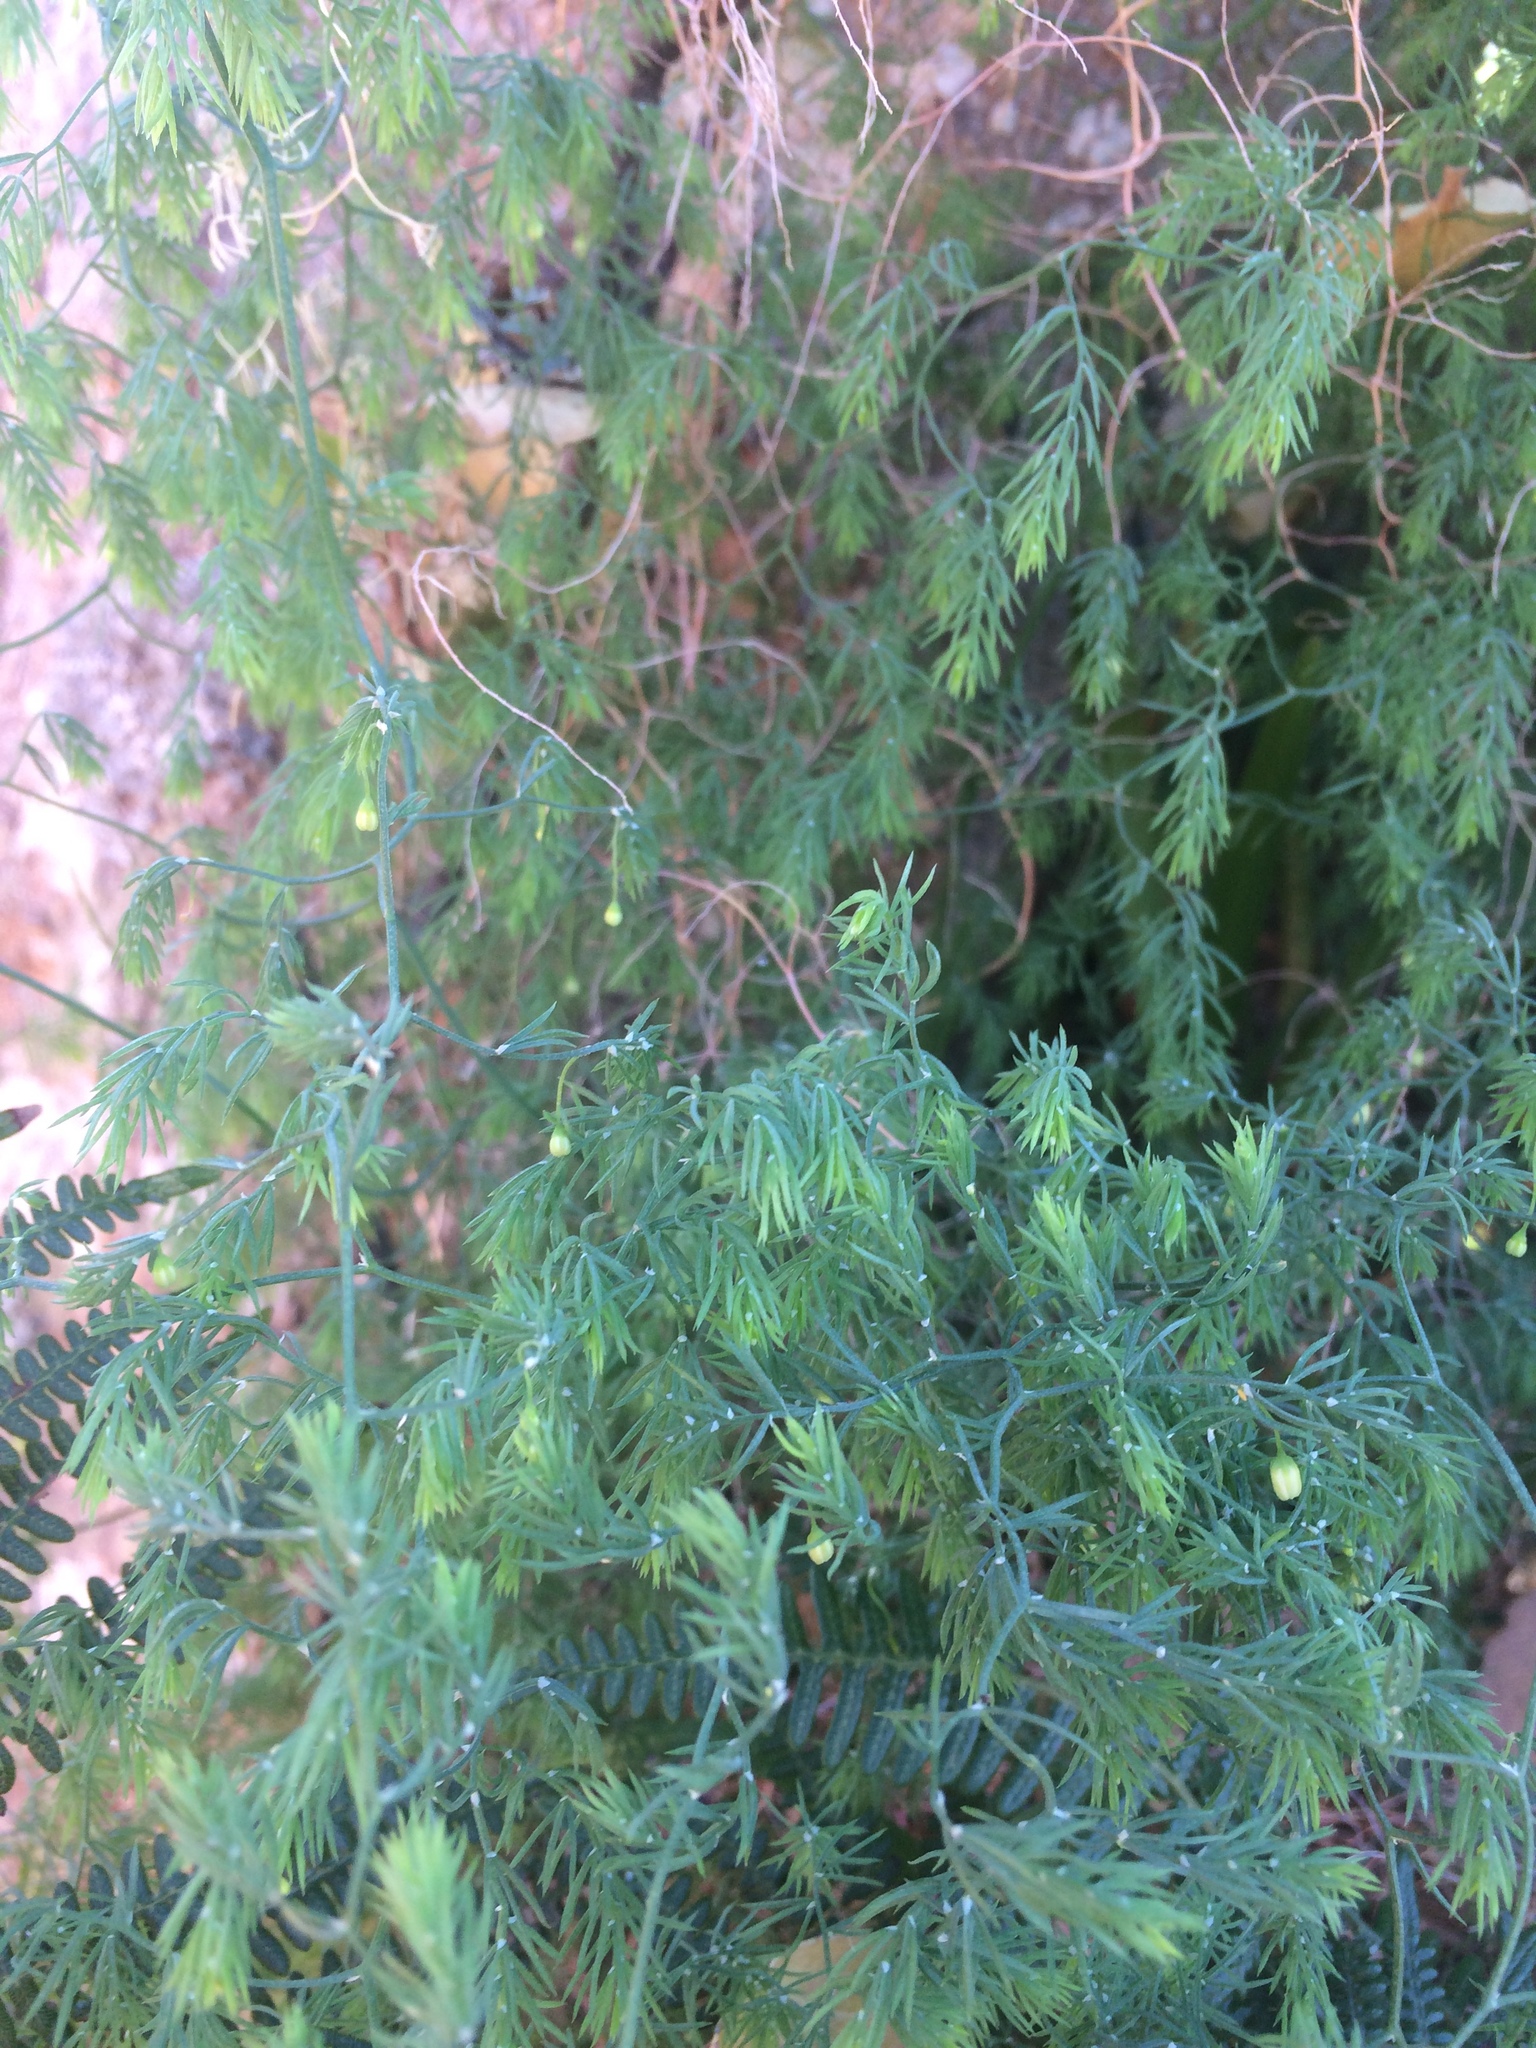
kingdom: Plantae
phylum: Tracheophyta
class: Liliopsida
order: Asparagales
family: Asparagaceae
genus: Asparagus
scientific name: Asparagus declinatus
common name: Bridal-creeper
